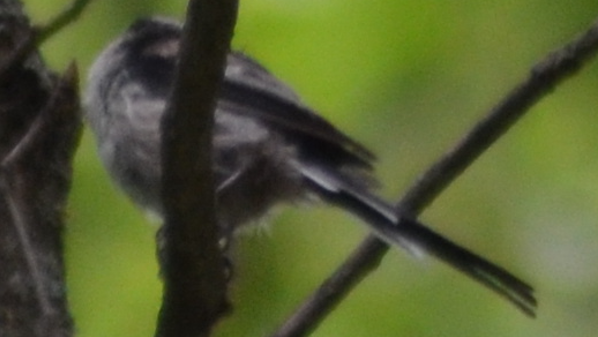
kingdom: Animalia
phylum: Chordata
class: Aves
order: Passeriformes
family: Aegithalidae
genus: Aegithalos
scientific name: Aegithalos caudatus
